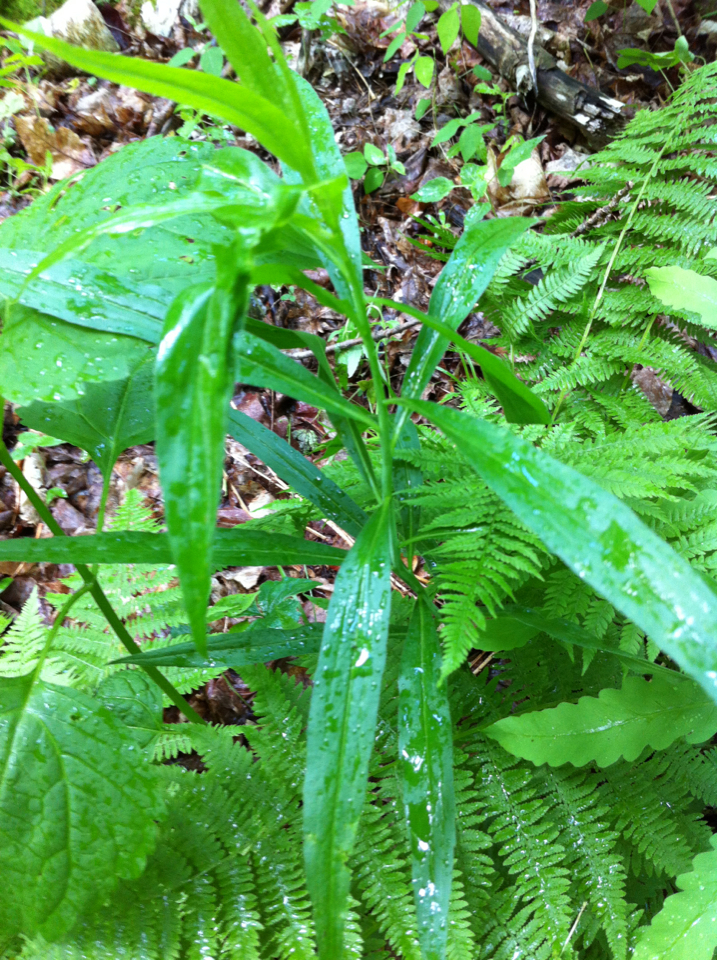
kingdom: Plantae
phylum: Tracheophyta
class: Magnoliopsida
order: Asterales
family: Asteraceae
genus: Solidago
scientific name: Solidago gigantea
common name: Giant goldenrod
